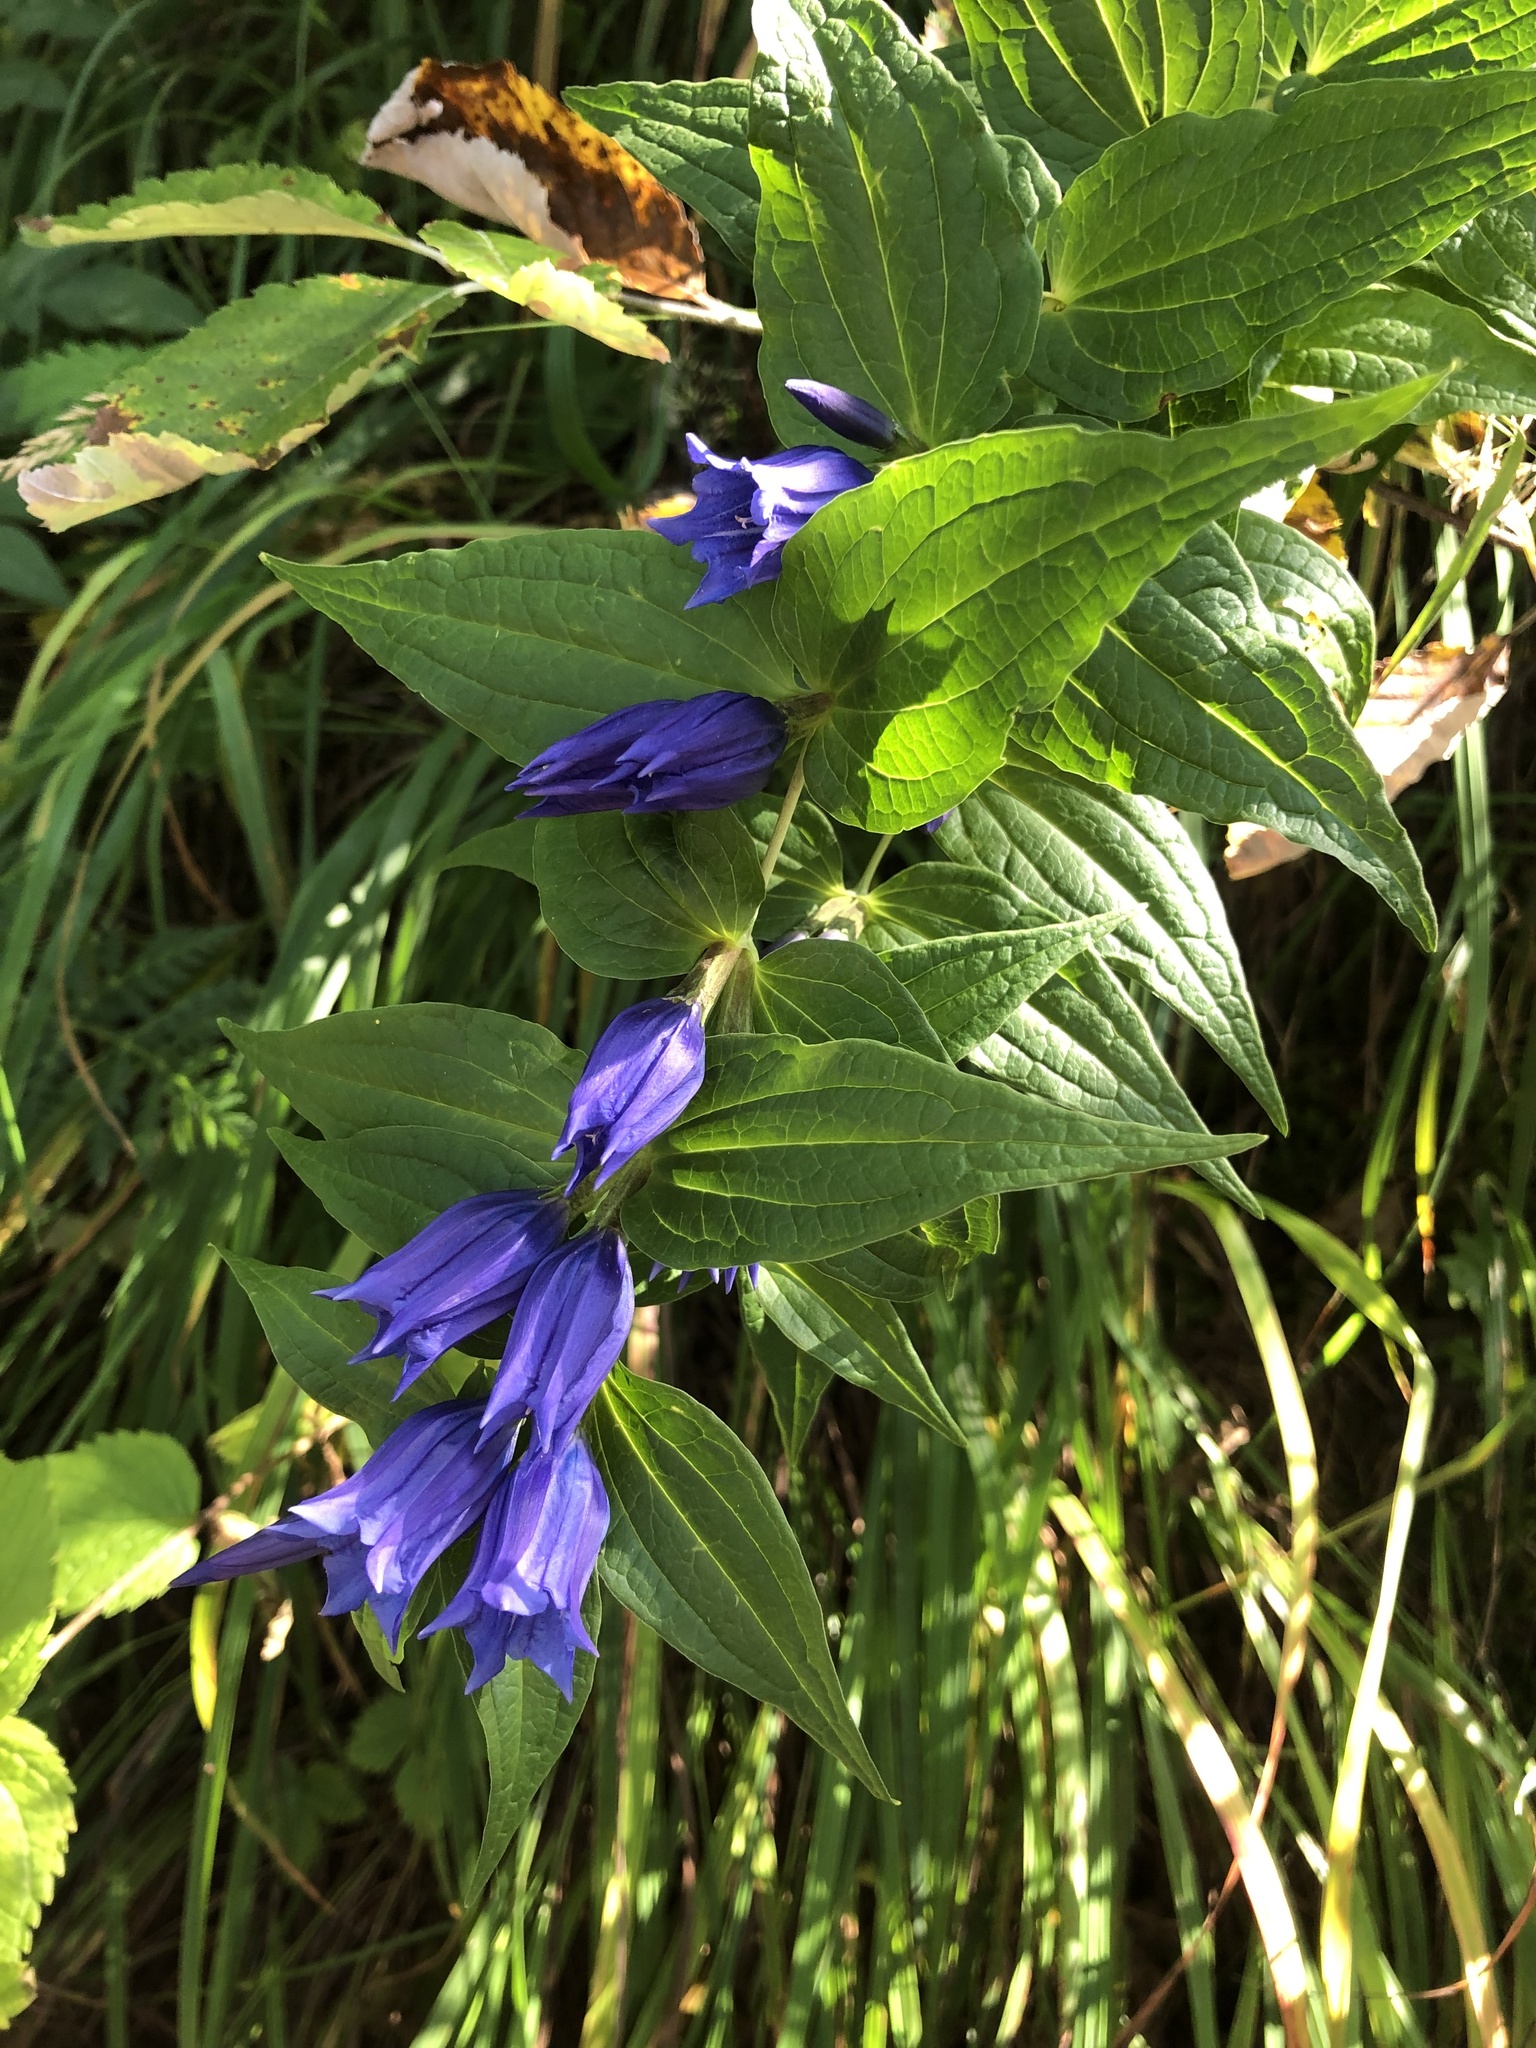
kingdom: Plantae
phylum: Tracheophyta
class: Magnoliopsida
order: Gentianales
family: Gentianaceae
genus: Gentiana
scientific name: Gentiana asclepiadea
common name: Willow gentian
